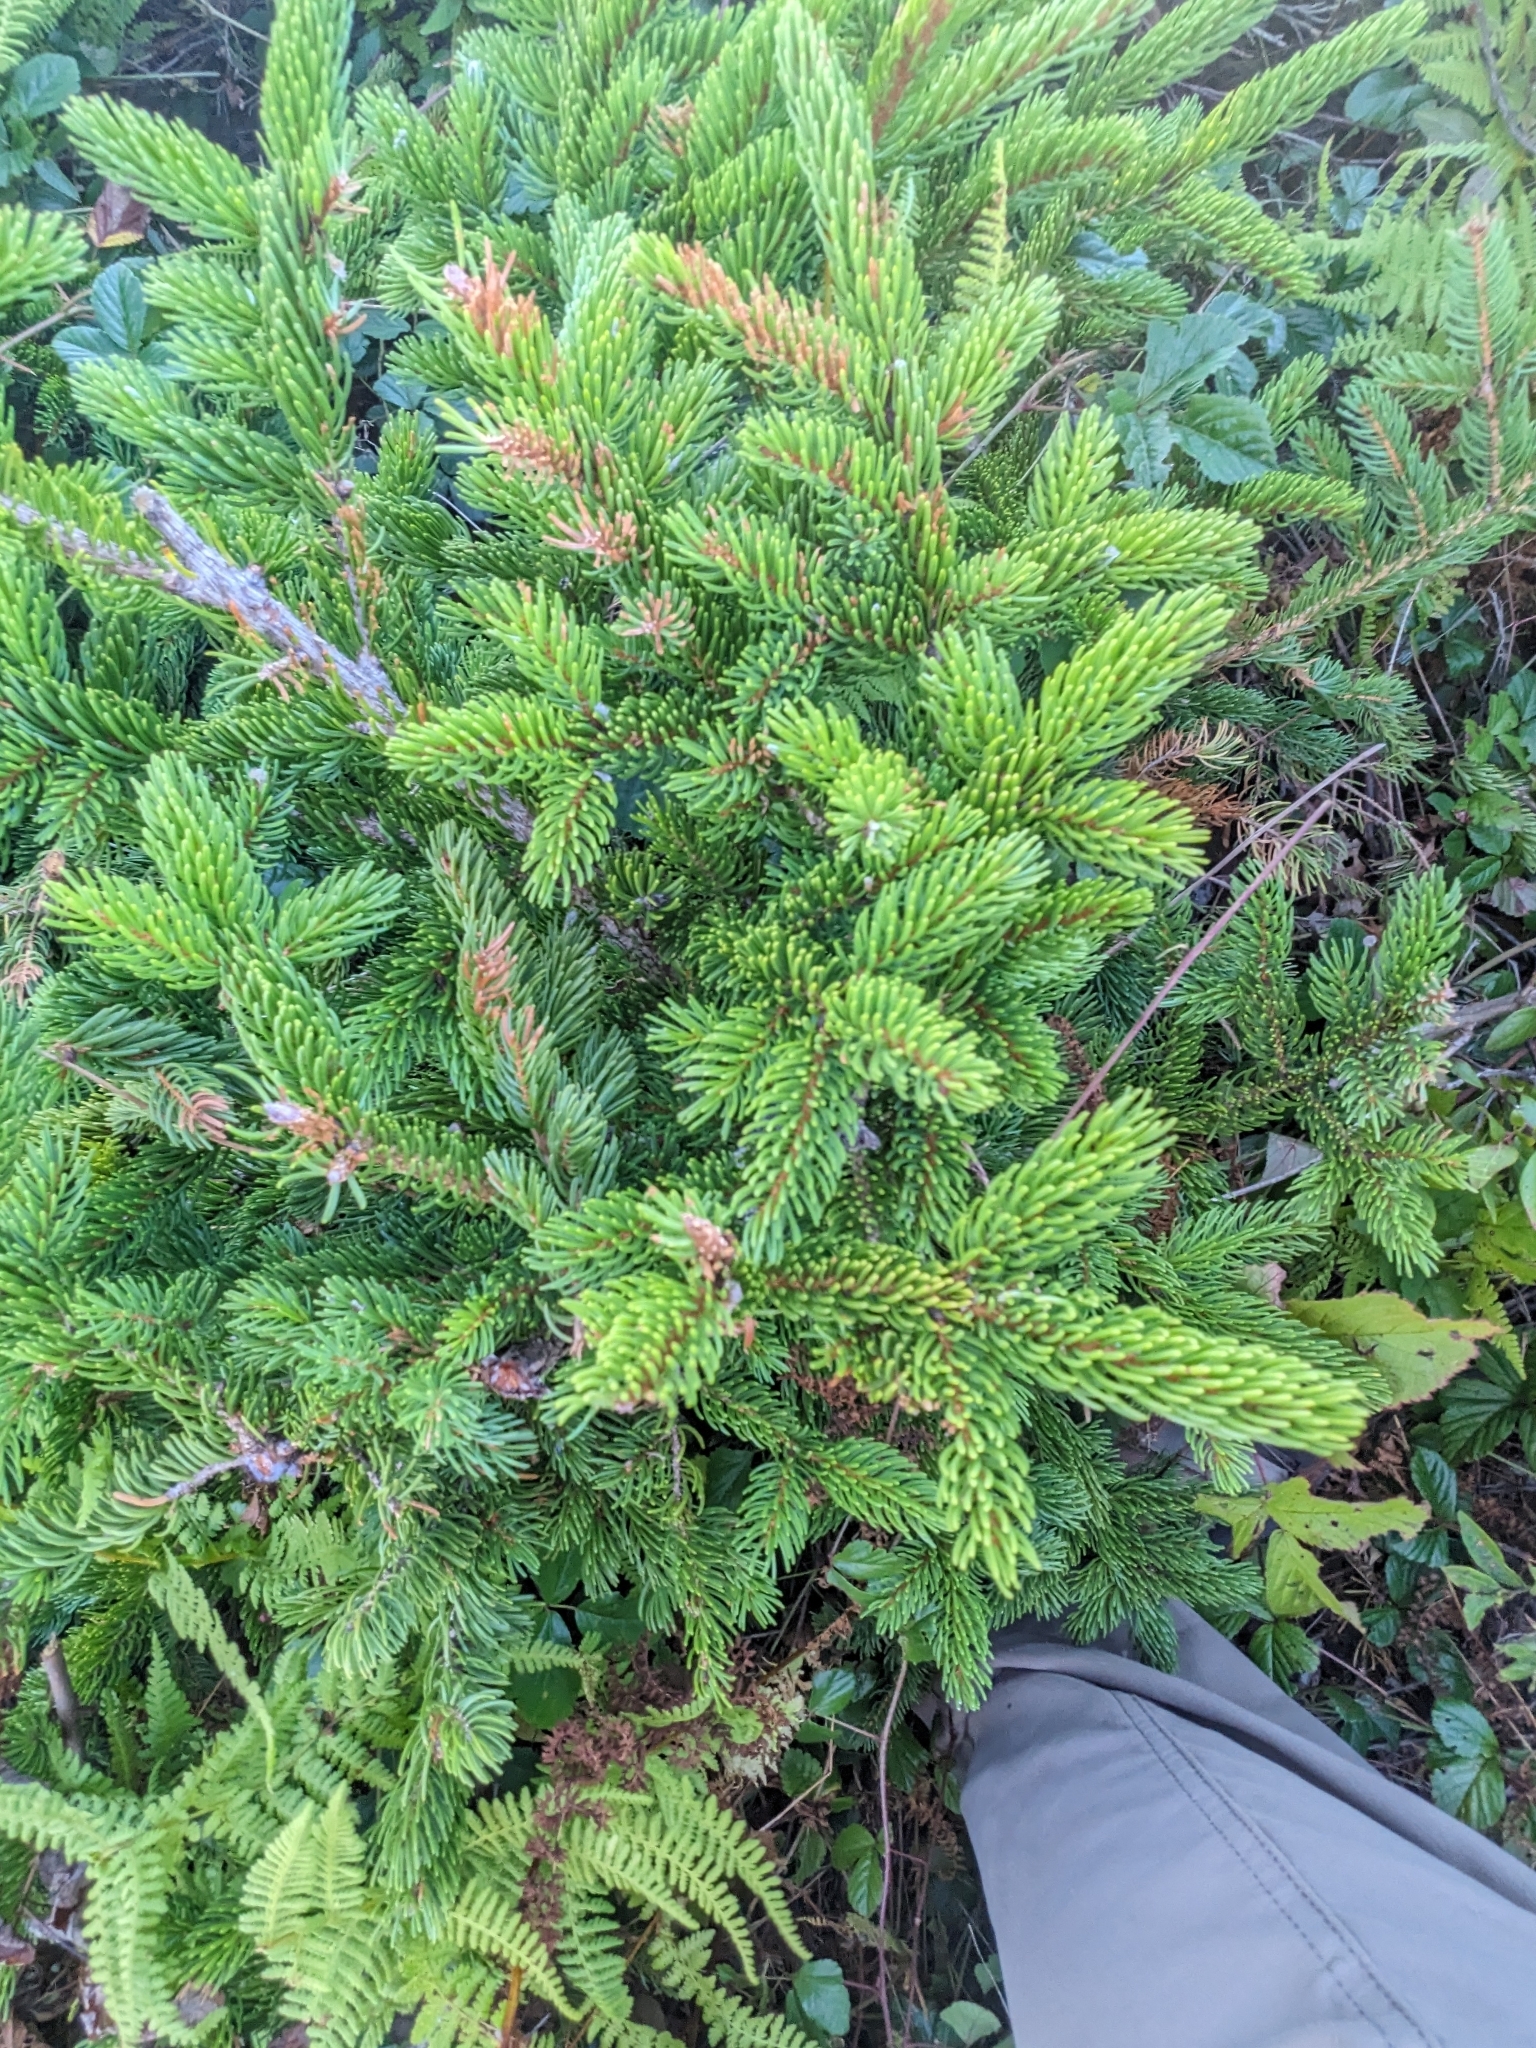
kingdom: Plantae
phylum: Tracheophyta
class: Pinopsida
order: Pinales
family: Pinaceae
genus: Picea
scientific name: Picea rubens
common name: Red spruce
